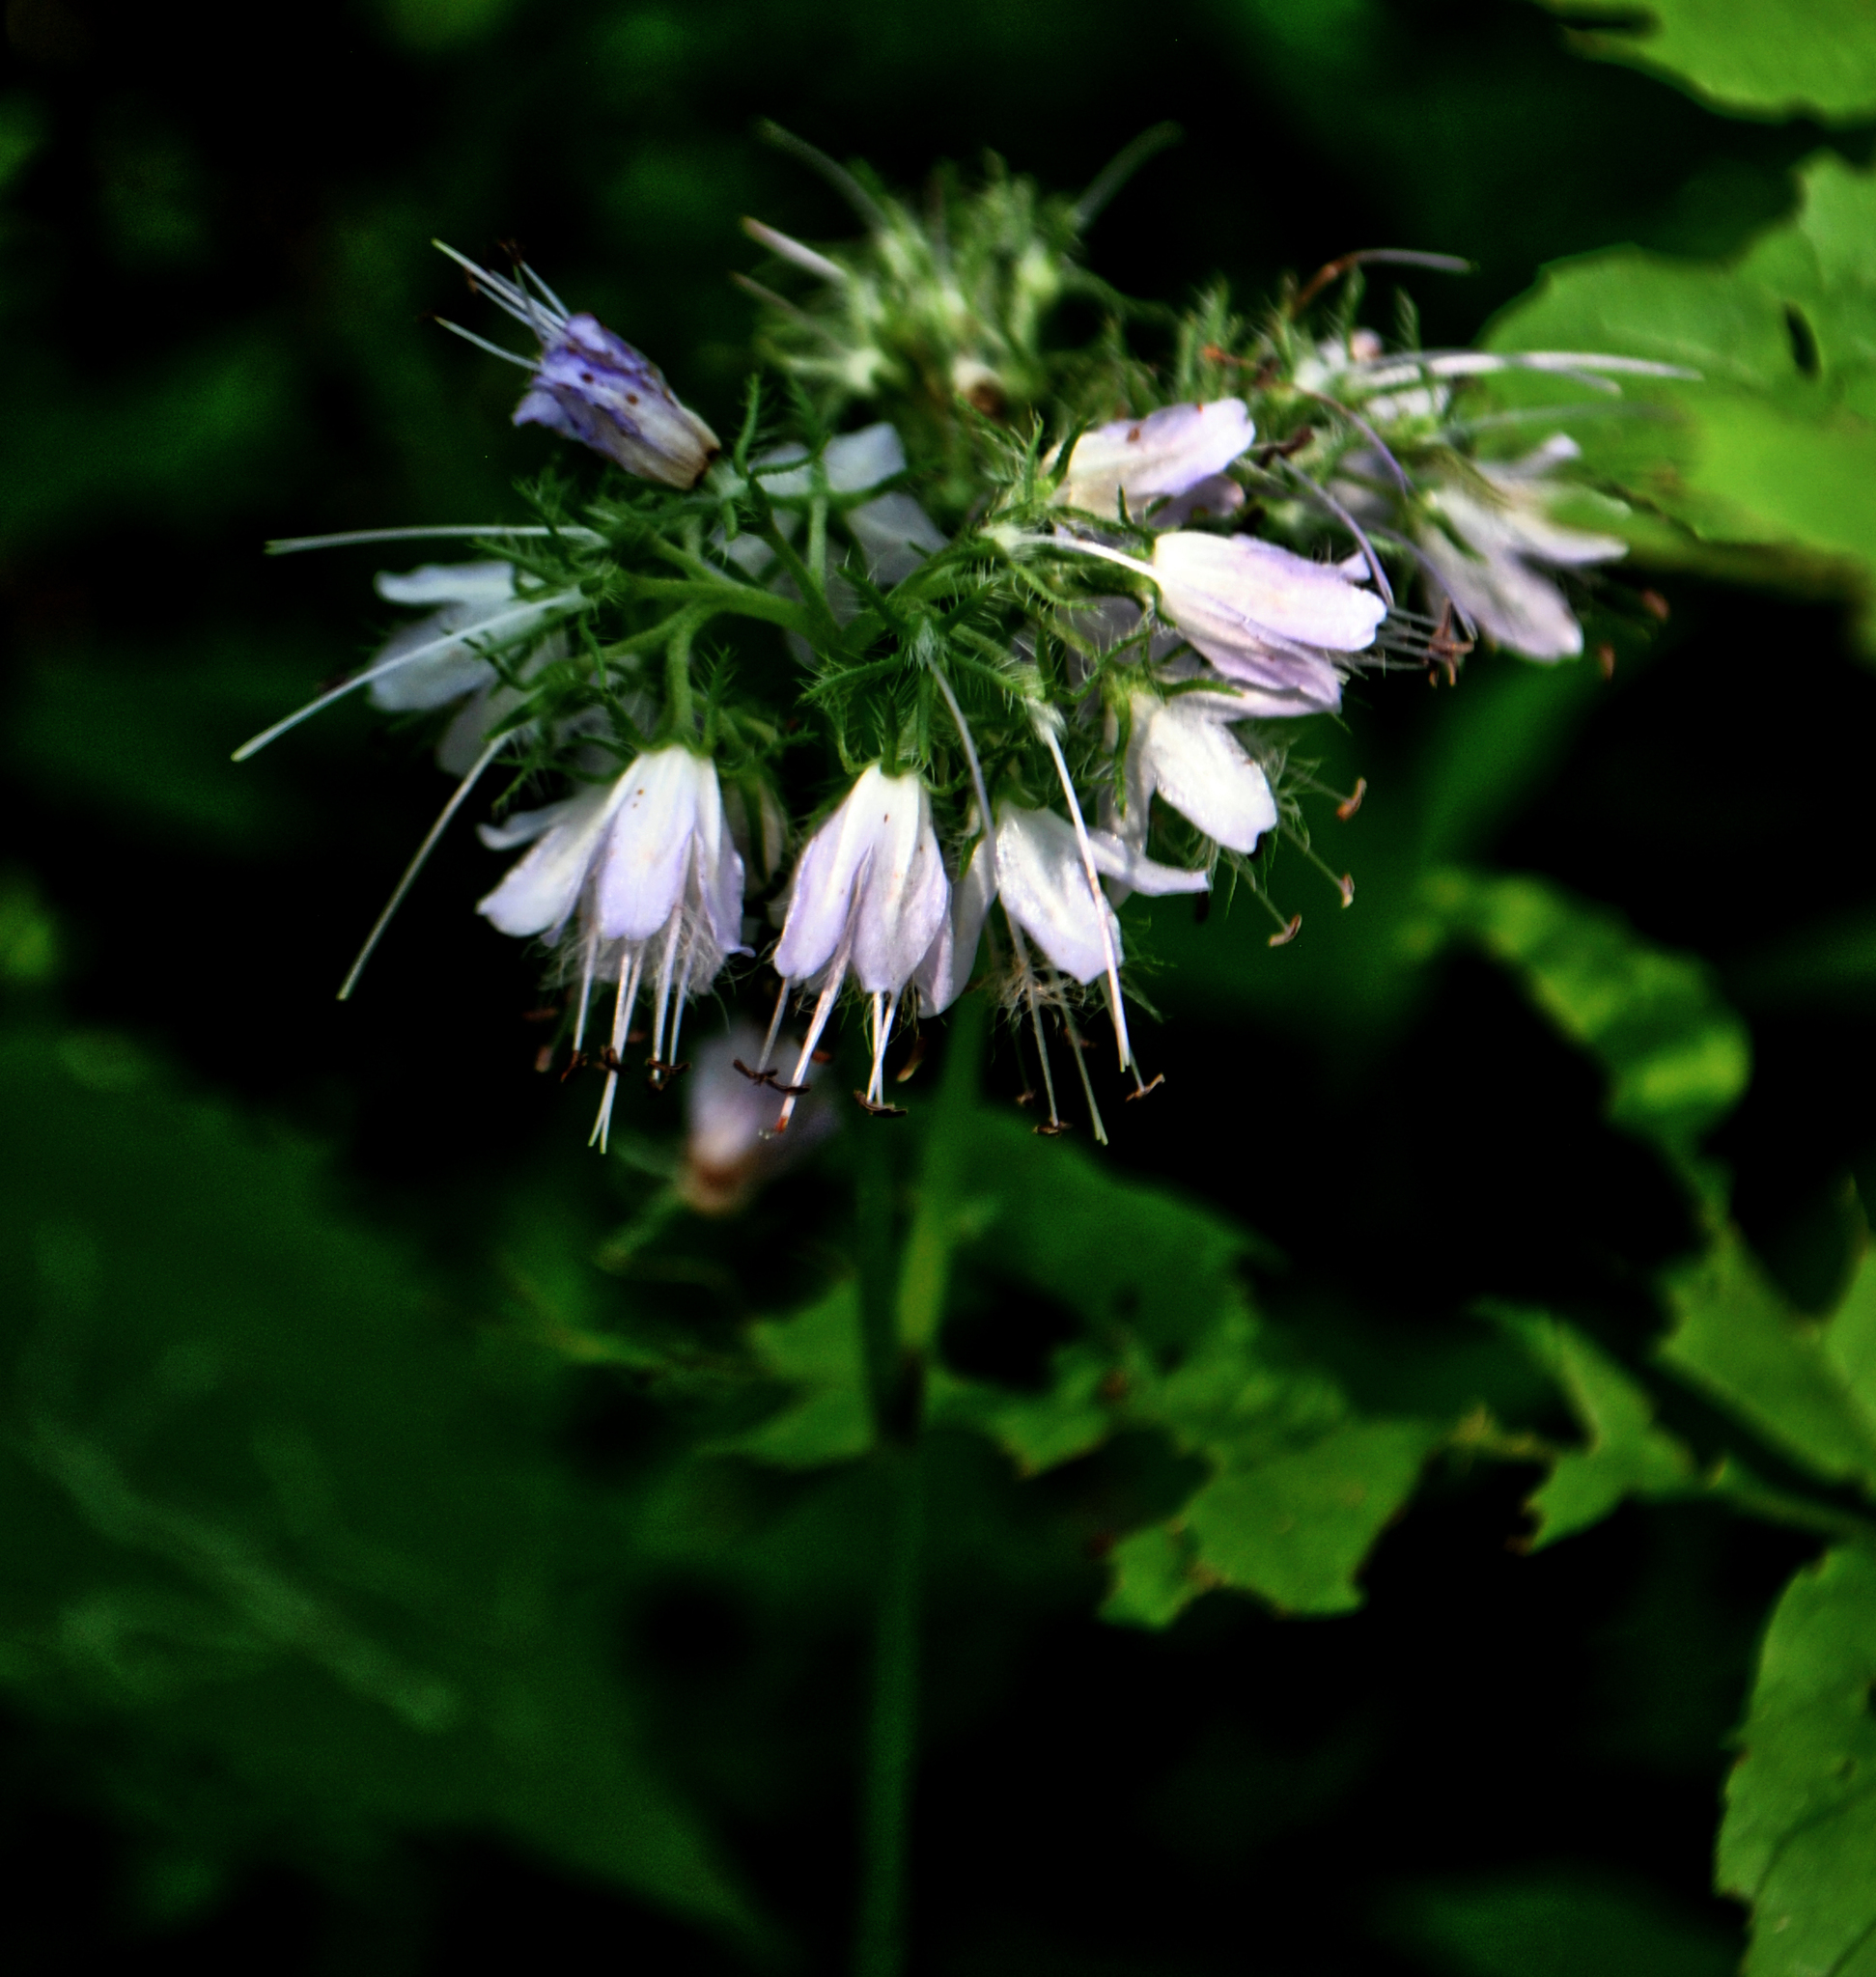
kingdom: Plantae
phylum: Tracheophyta
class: Magnoliopsida
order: Boraginales
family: Hydrophyllaceae
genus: Hydrophyllum
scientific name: Hydrophyllum virginianum
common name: Virginia waterleaf
